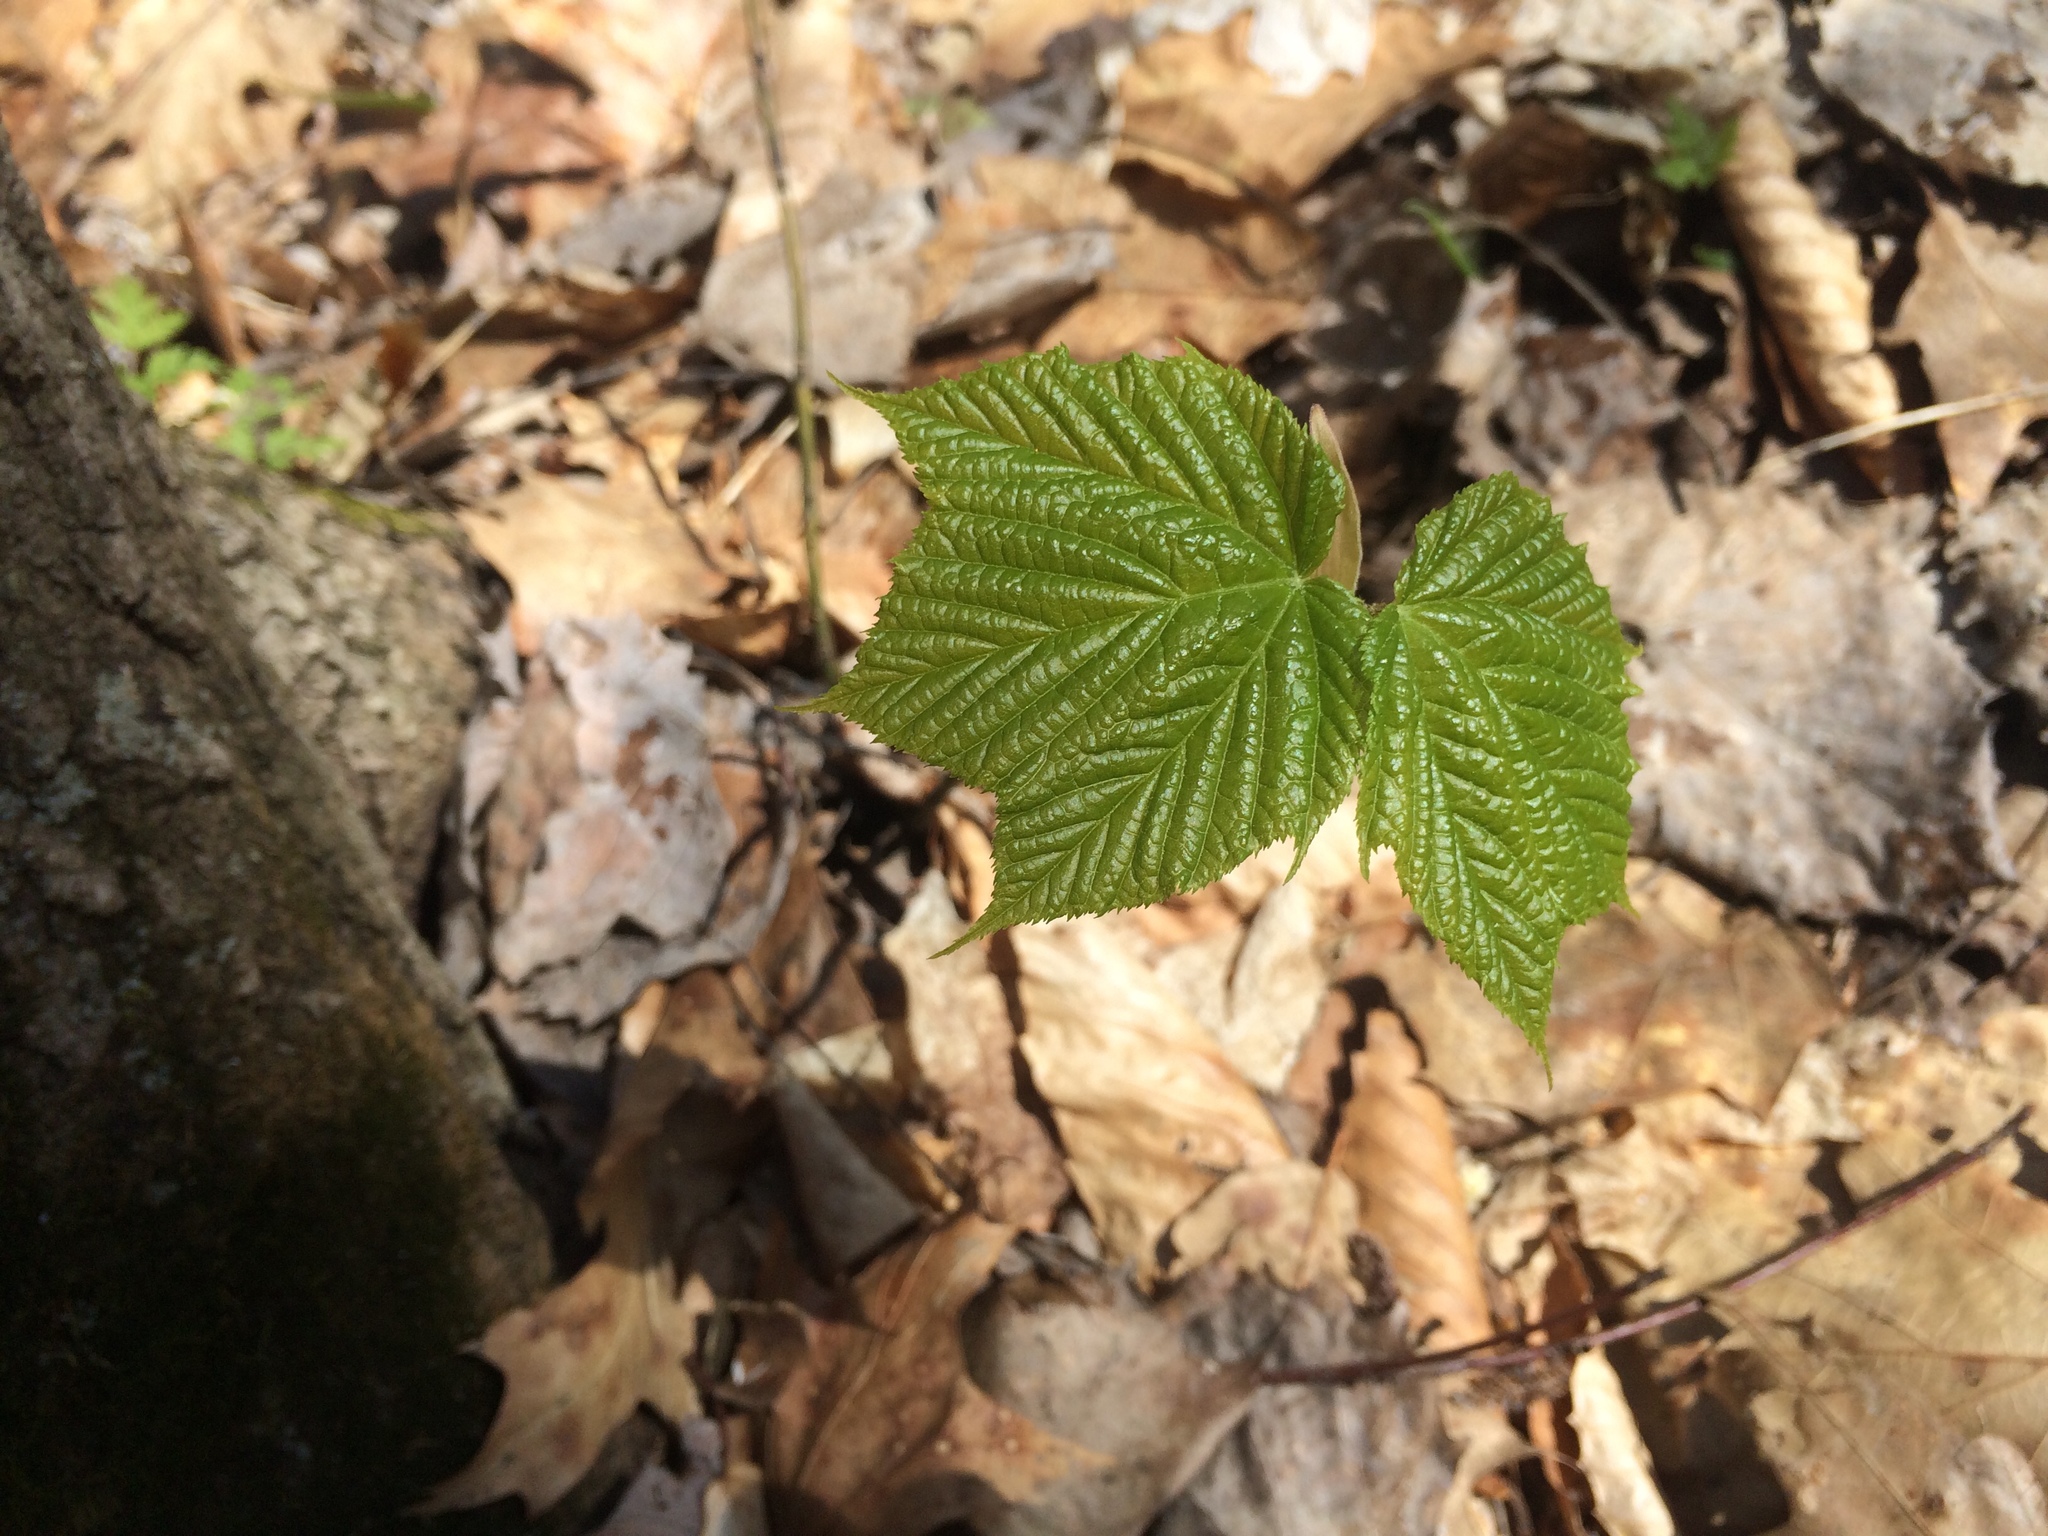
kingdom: Plantae
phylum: Tracheophyta
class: Magnoliopsida
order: Sapindales
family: Sapindaceae
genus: Acer
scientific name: Acer pensylvanicum
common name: Moosewood
